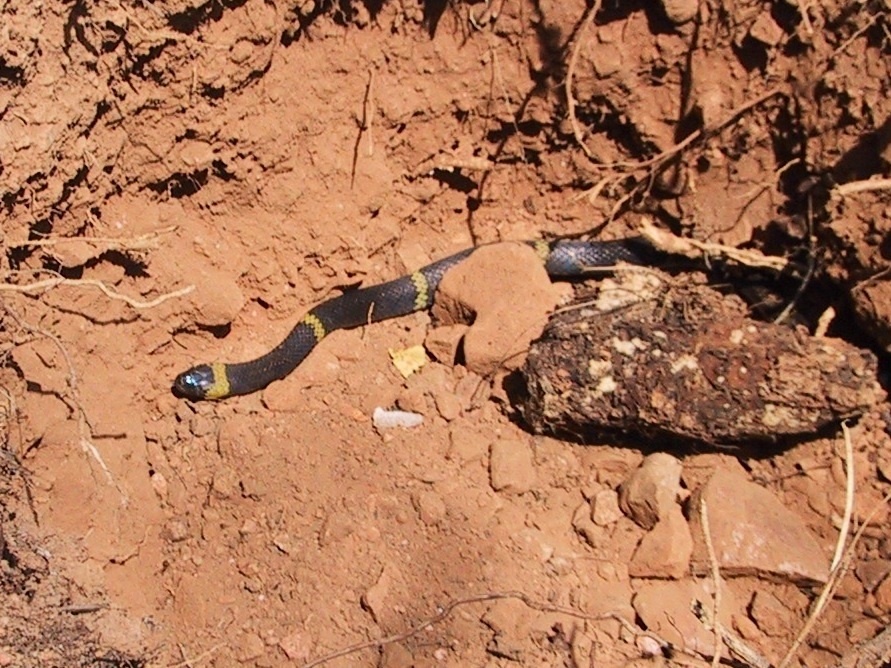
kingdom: Animalia
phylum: Chordata
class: Squamata
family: Colubridae
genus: Geophis
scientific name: Geophis
